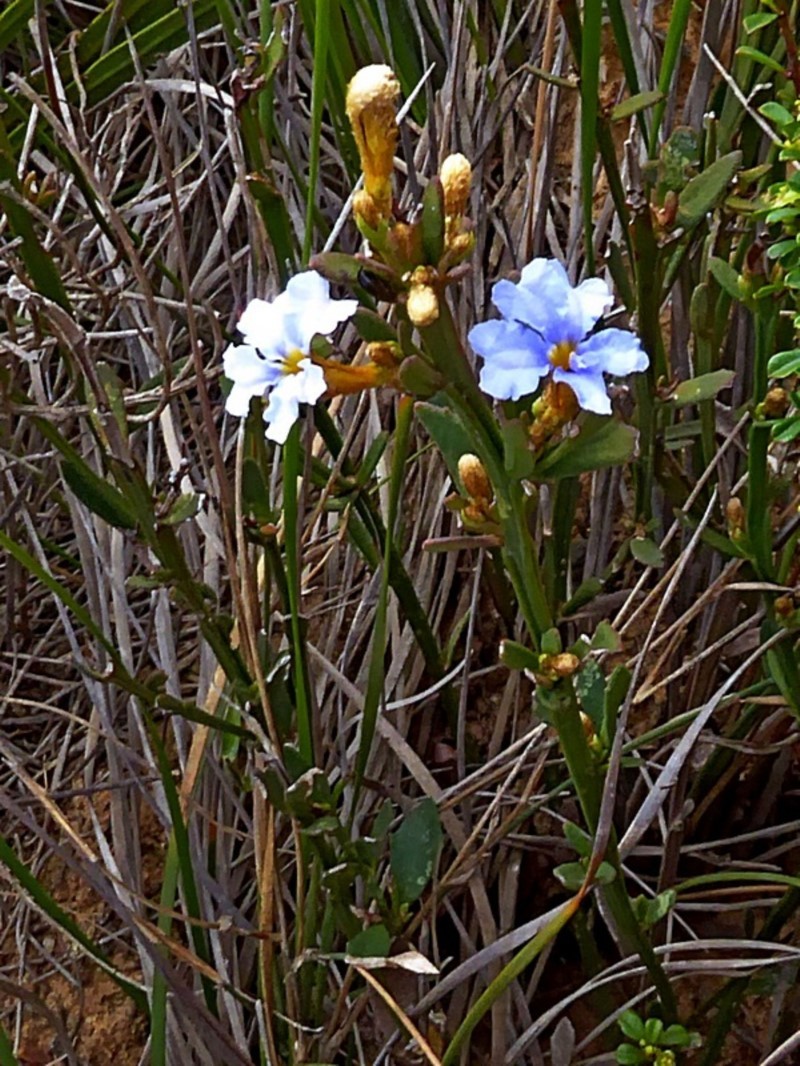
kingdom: Plantae
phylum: Tracheophyta
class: Magnoliopsida
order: Asterales
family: Goodeniaceae
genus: Dampiera
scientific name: Dampiera stricta
